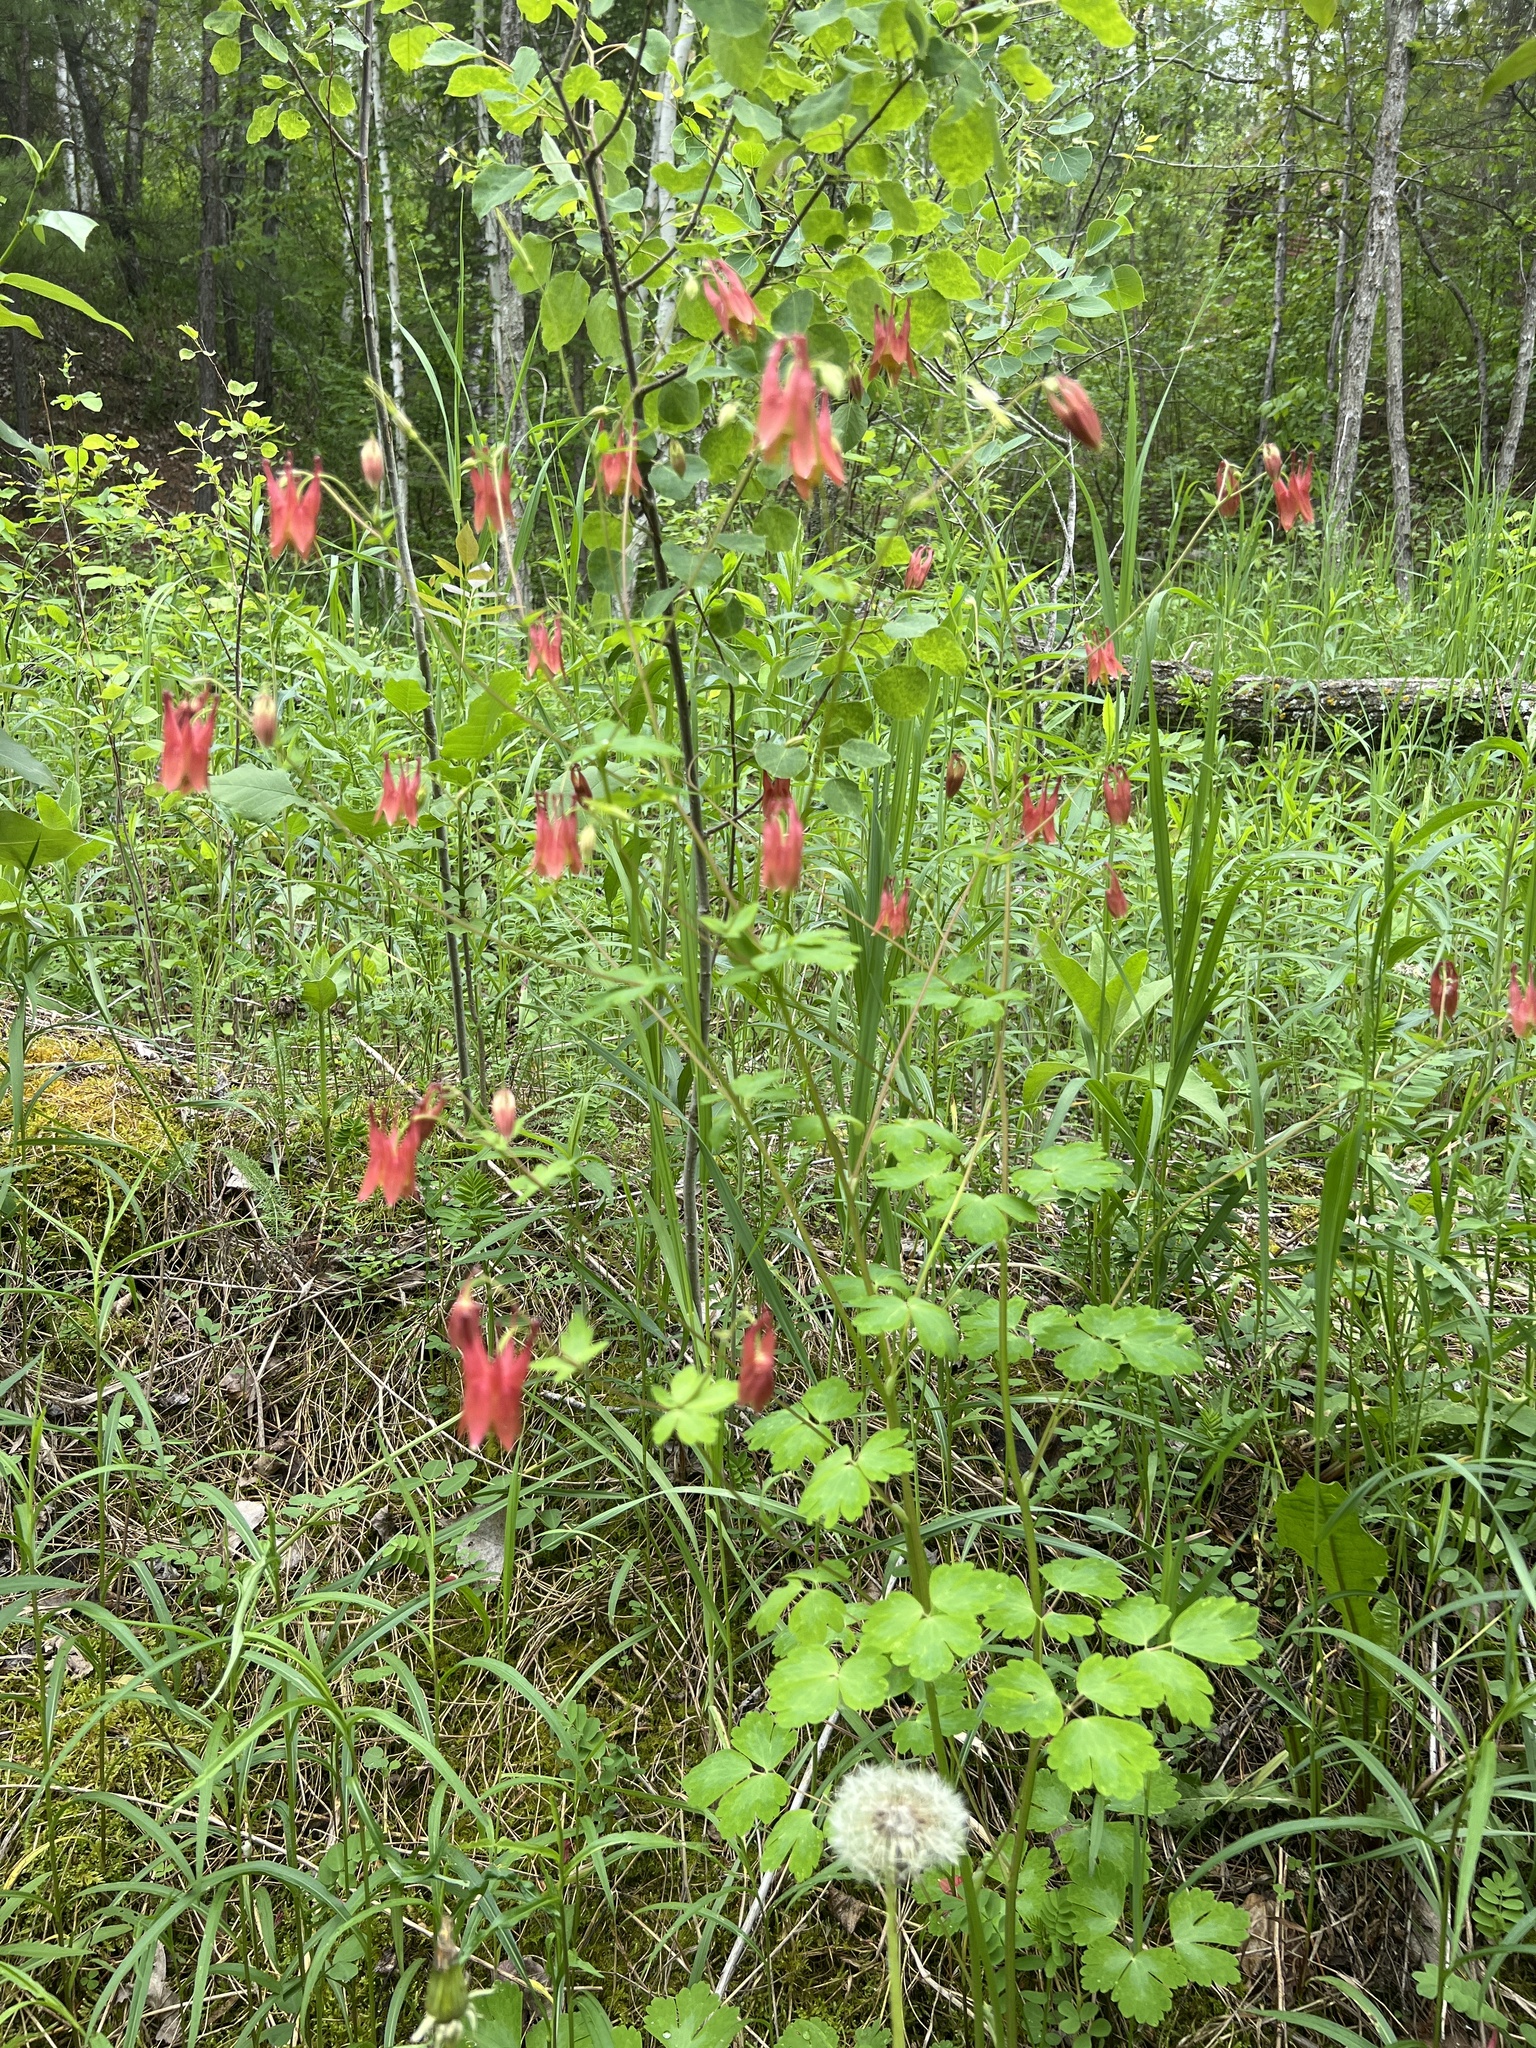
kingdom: Plantae
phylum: Tracheophyta
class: Magnoliopsida
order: Ranunculales
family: Ranunculaceae
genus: Aquilegia
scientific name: Aquilegia canadensis
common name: American columbine
